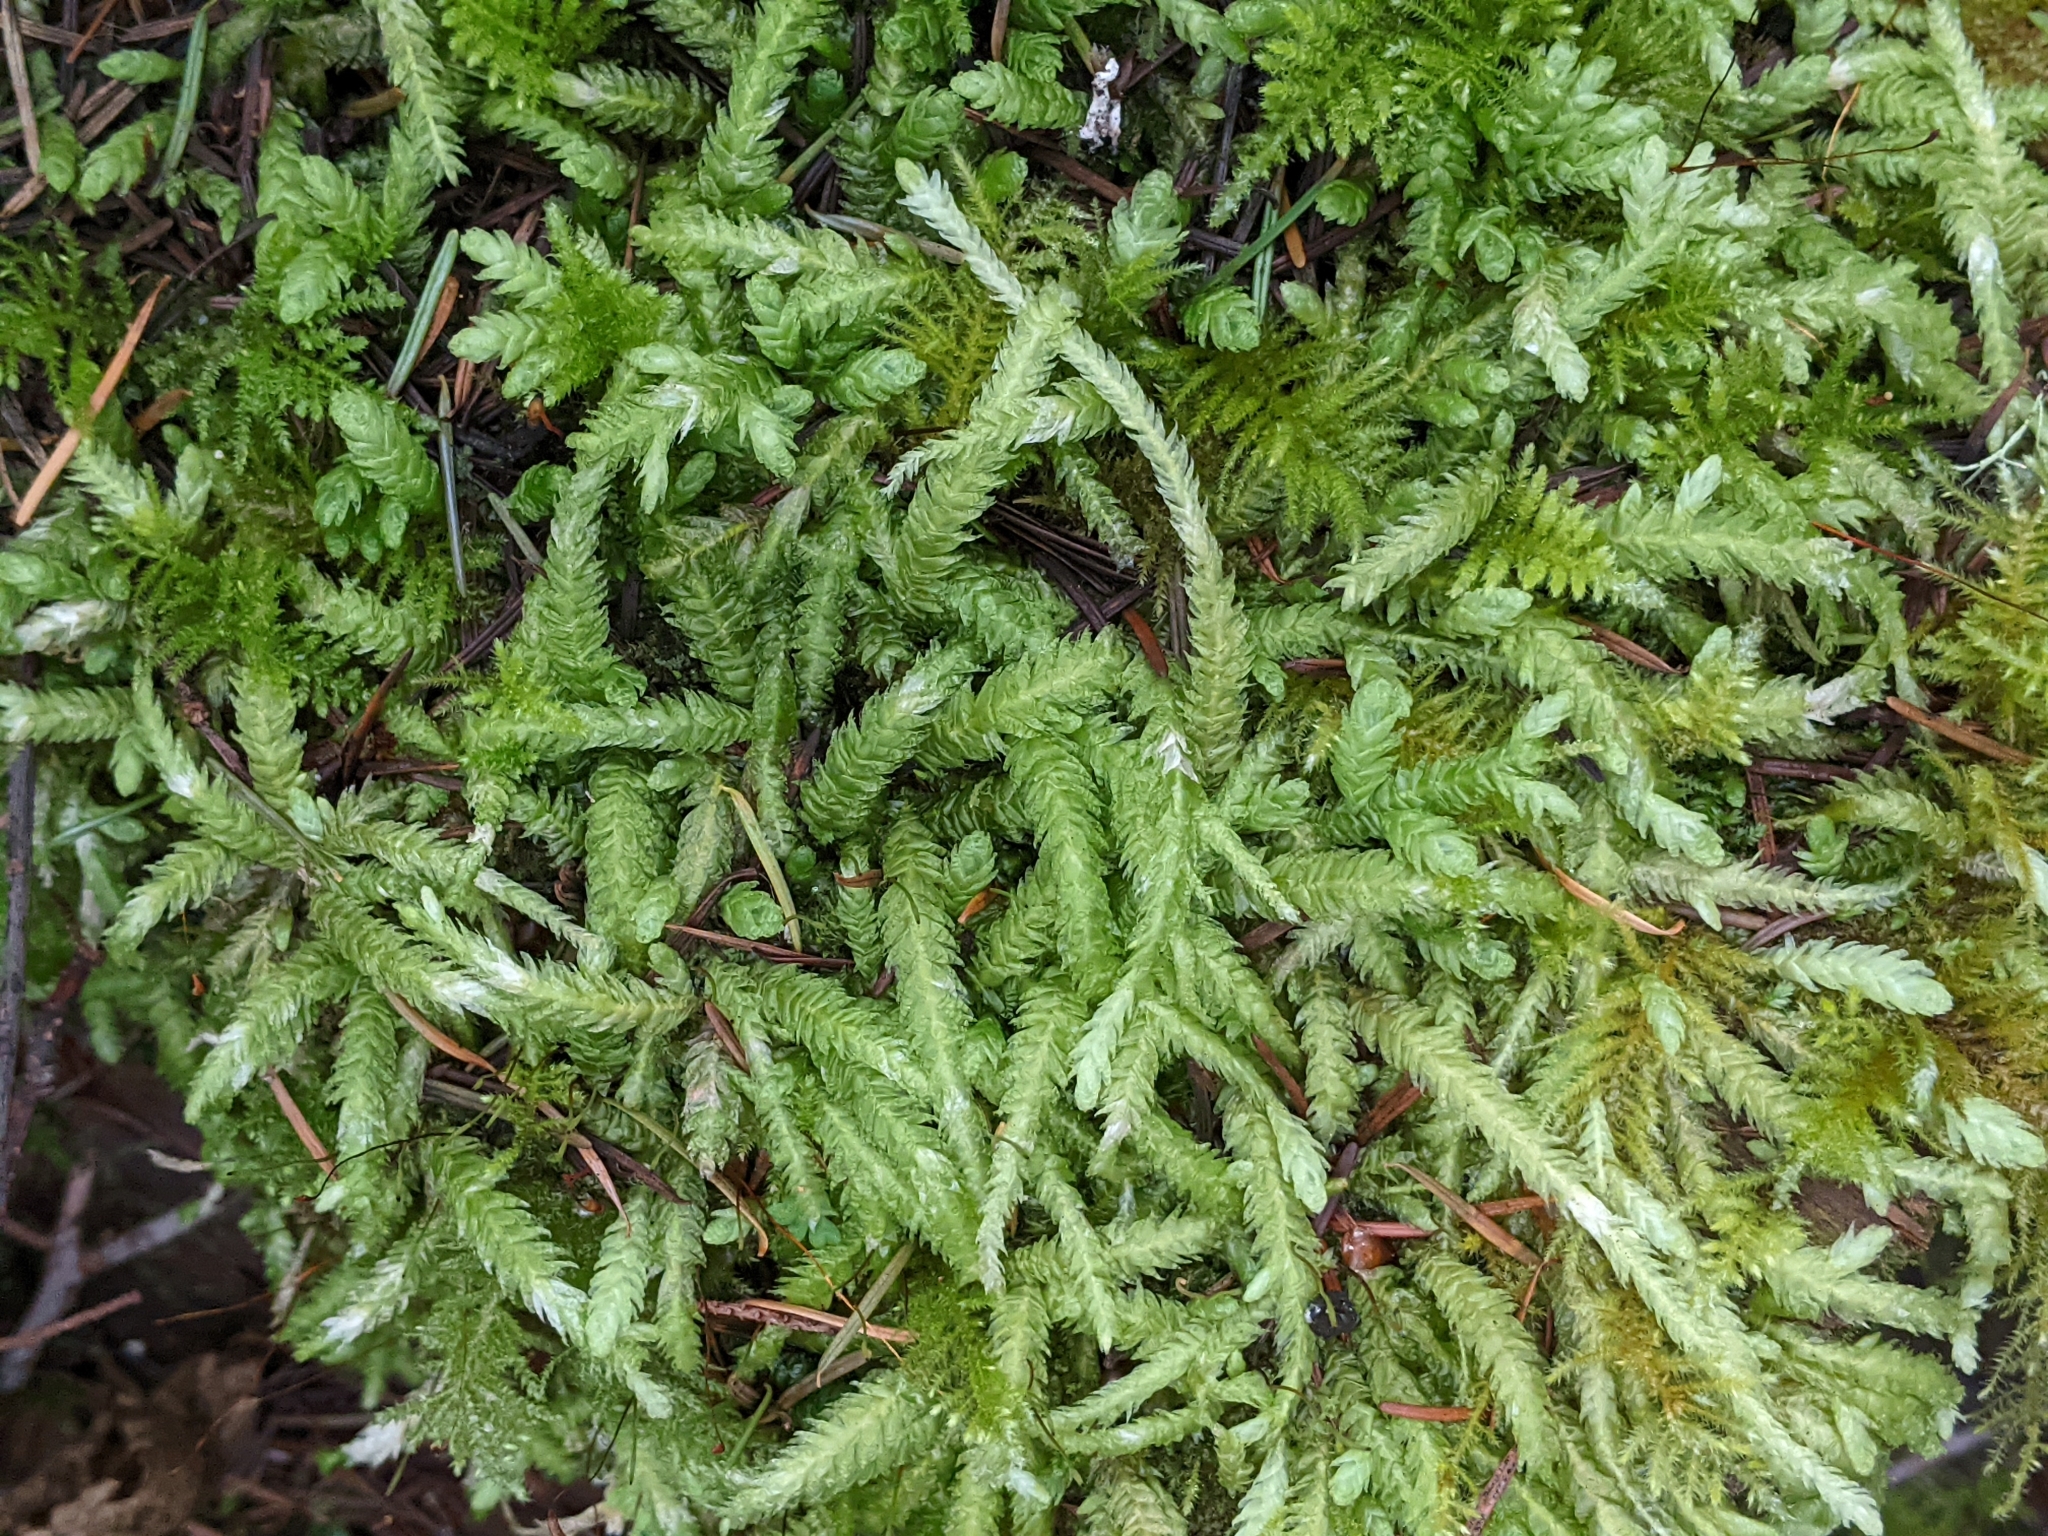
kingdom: Plantae
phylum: Bryophyta
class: Bryopsida
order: Hypnales
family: Plagiotheciaceae
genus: Plagiothecium
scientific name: Plagiothecium undulatum
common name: Waved silk-moss
